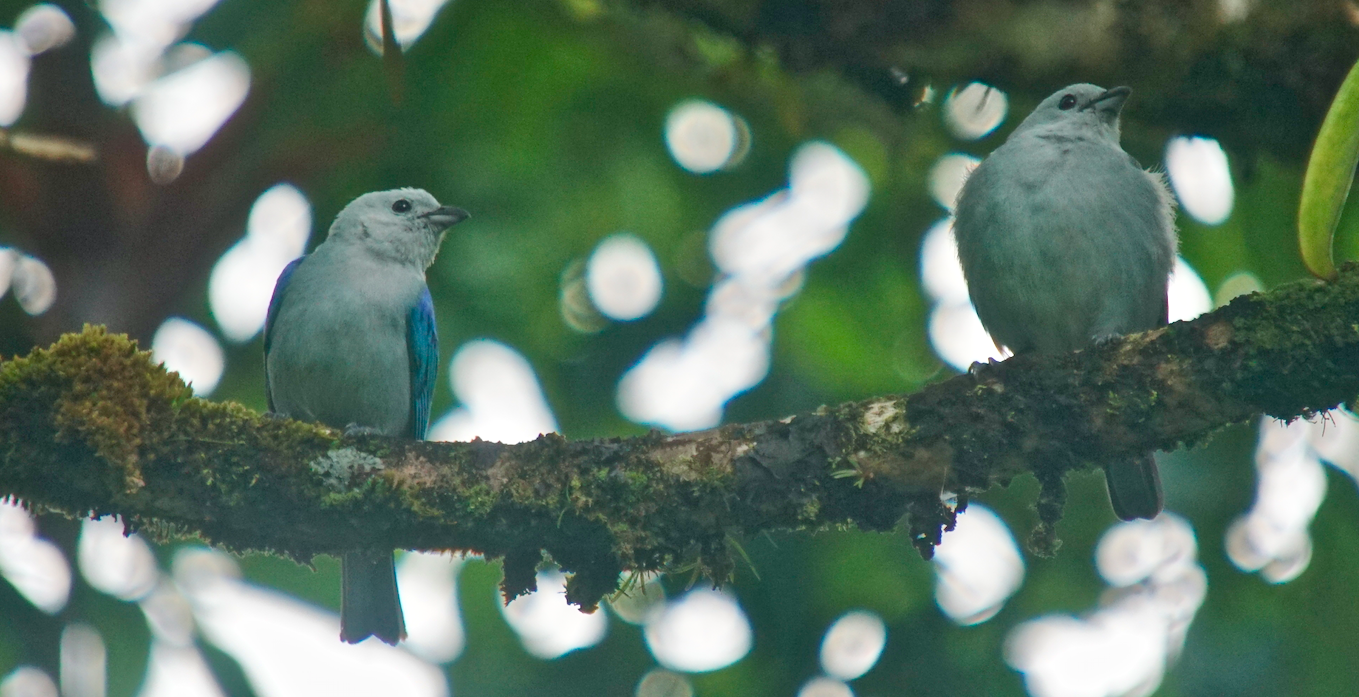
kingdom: Animalia
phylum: Chordata
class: Aves
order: Passeriformes
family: Thraupidae
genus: Thraupis
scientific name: Thraupis episcopus
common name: Blue-grey tanager
